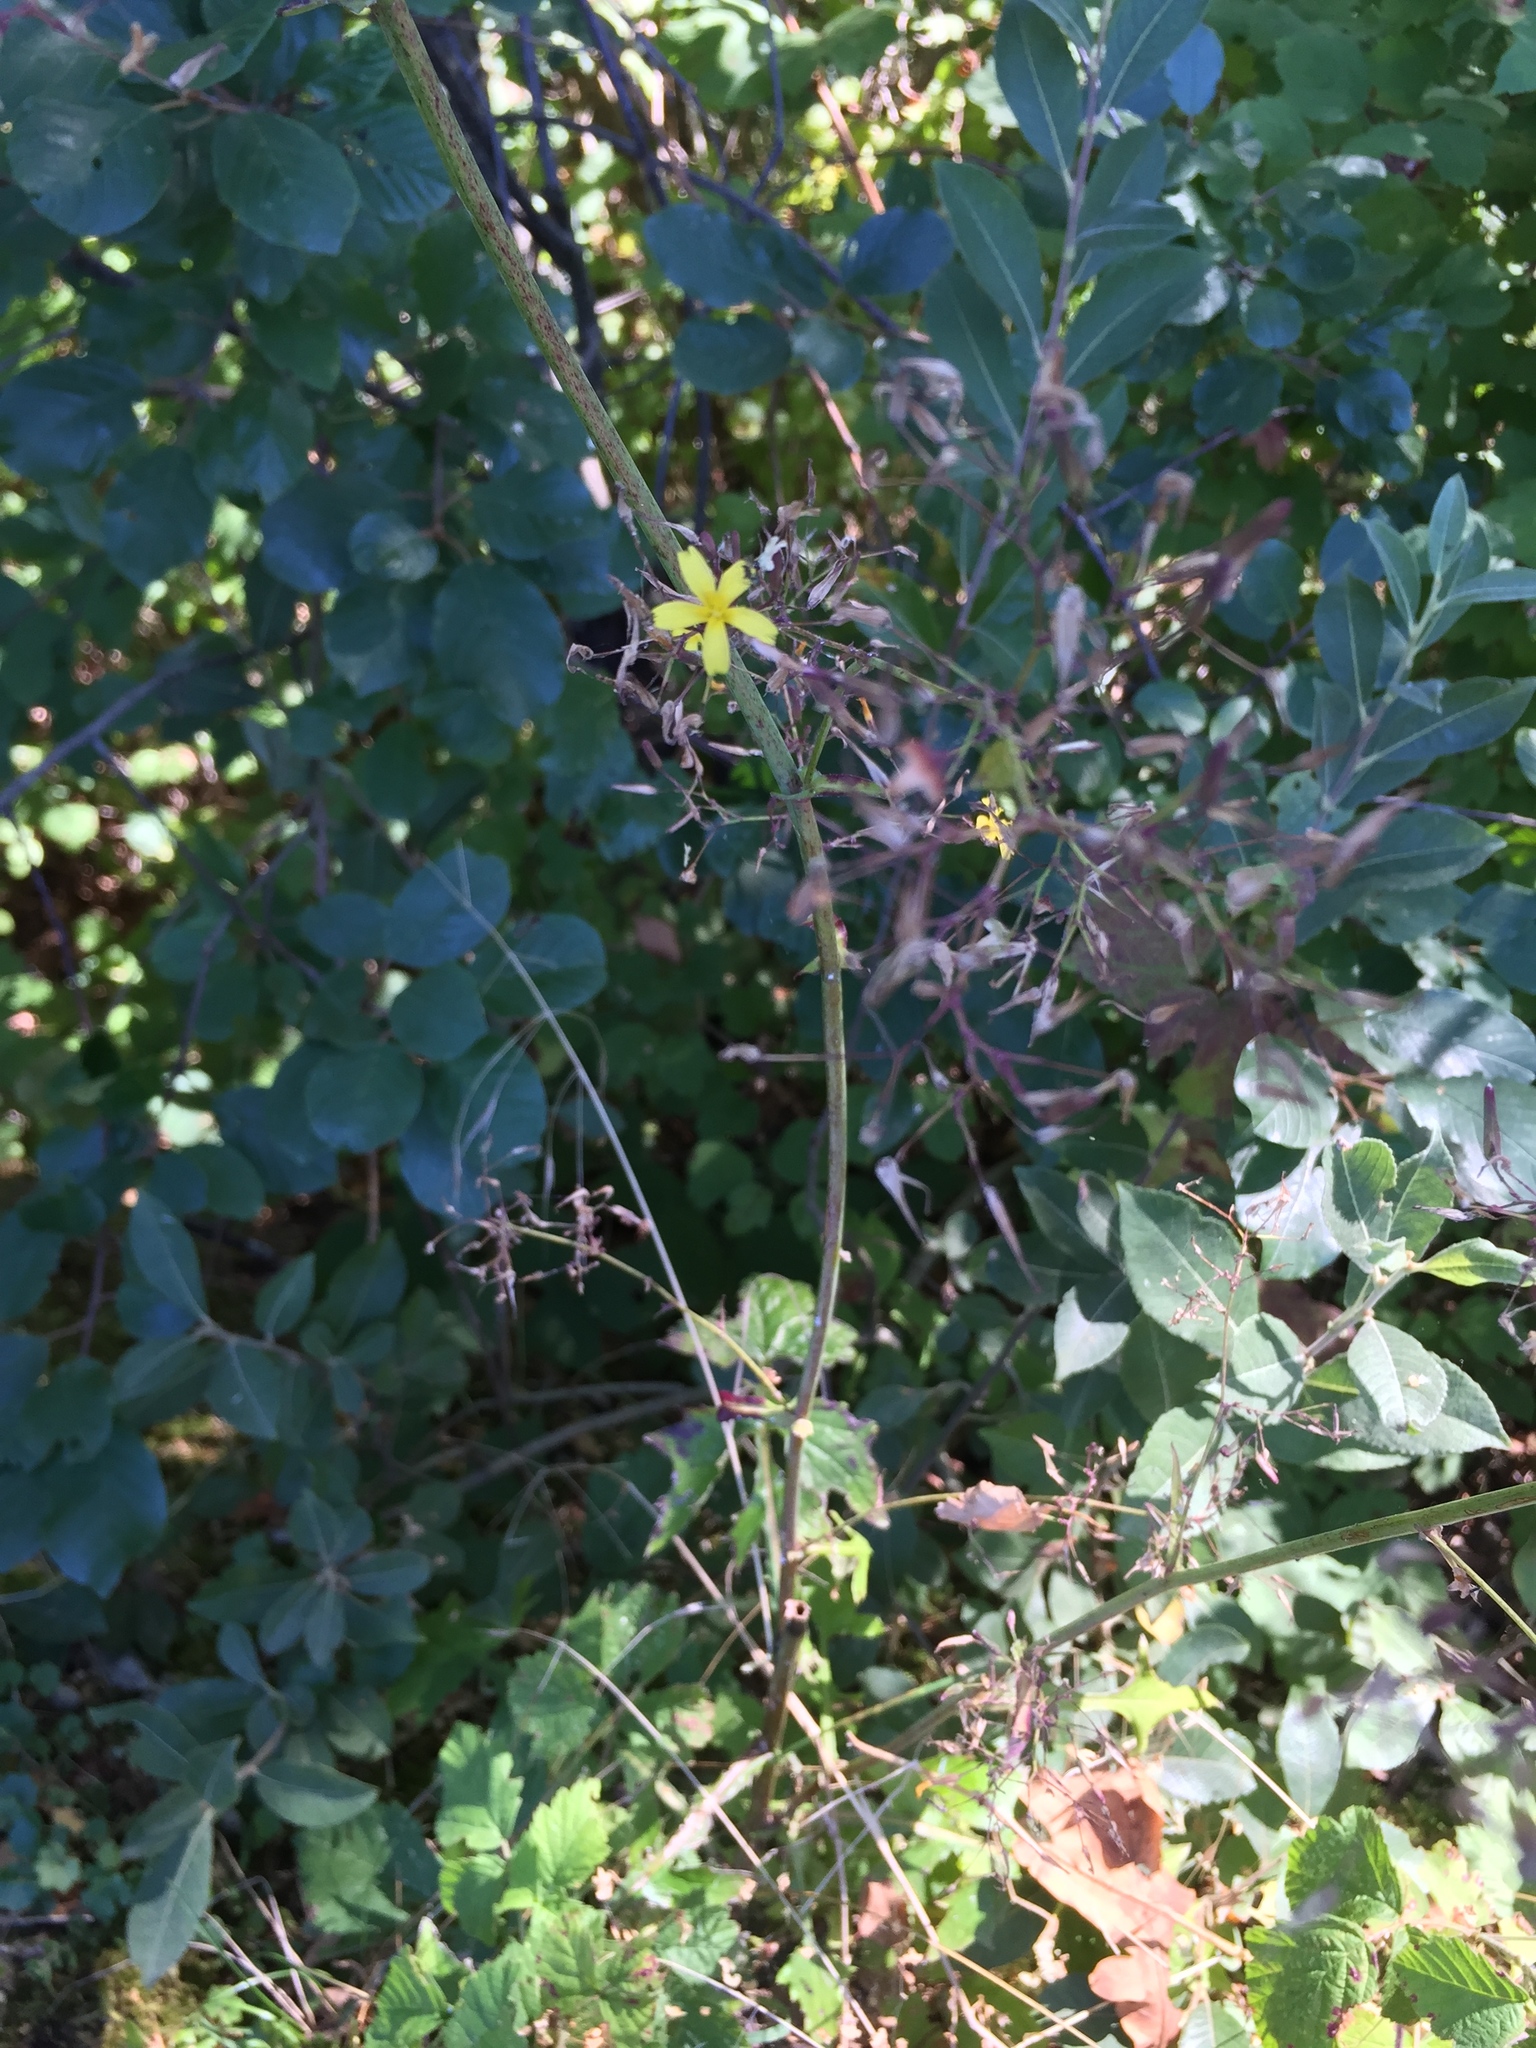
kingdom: Plantae
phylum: Tracheophyta
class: Magnoliopsida
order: Asterales
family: Asteraceae
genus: Mycelis
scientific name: Mycelis muralis
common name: Wall lettuce
